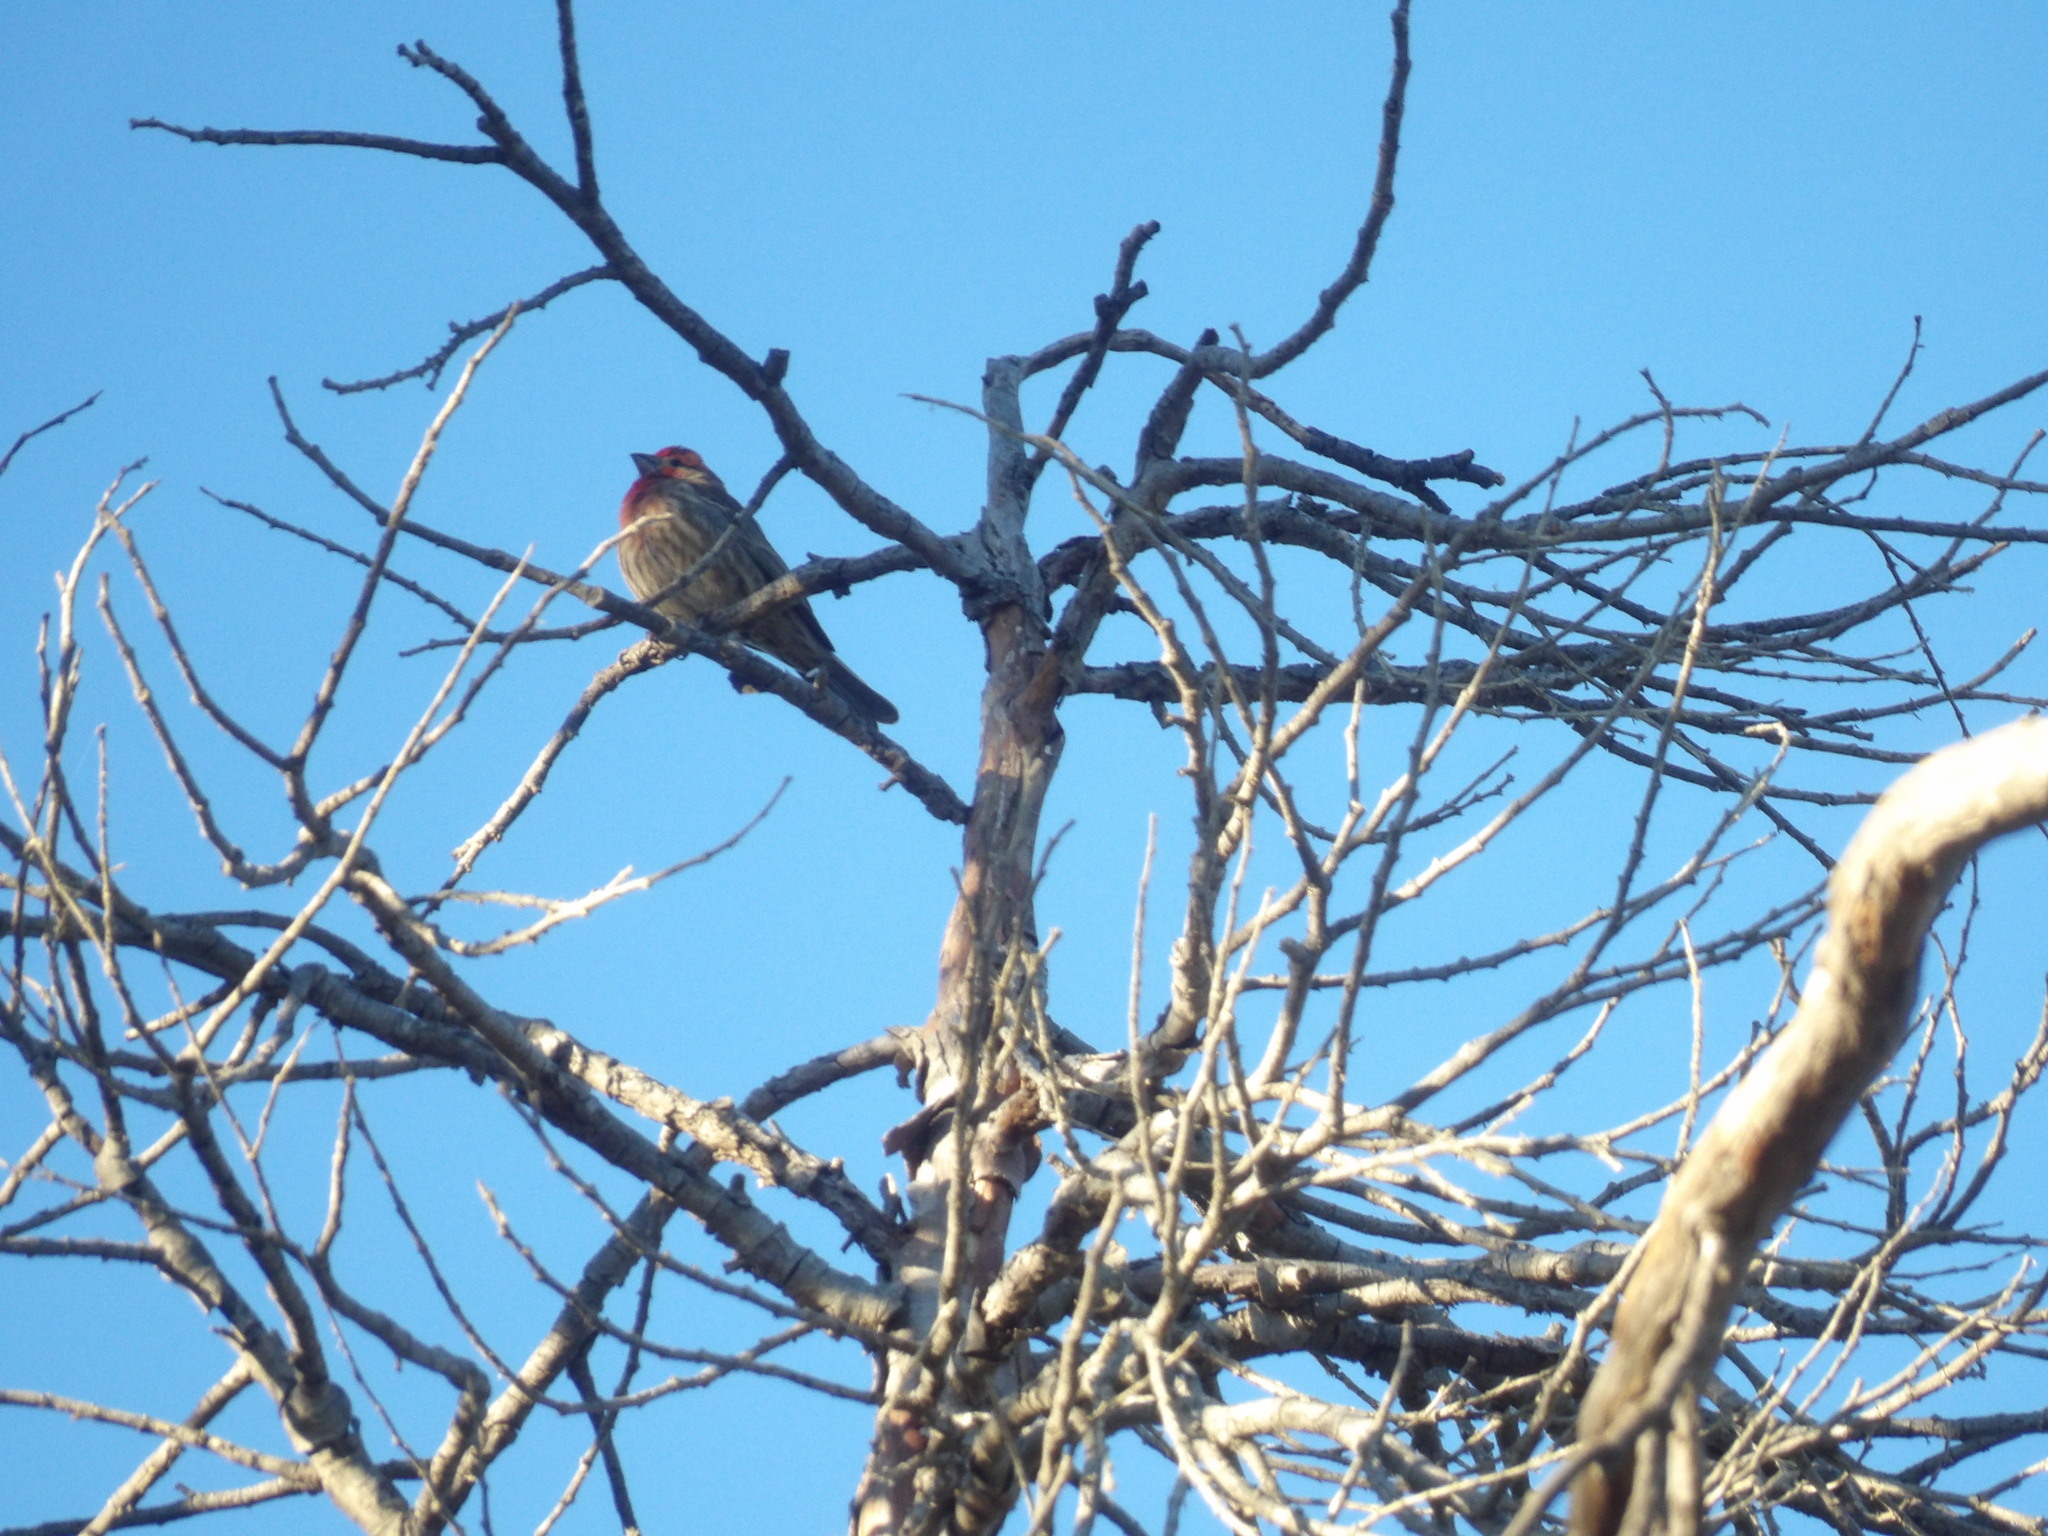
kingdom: Animalia
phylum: Chordata
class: Aves
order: Passeriformes
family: Fringillidae
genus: Haemorhous
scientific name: Haemorhous mexicanus
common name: House finch
